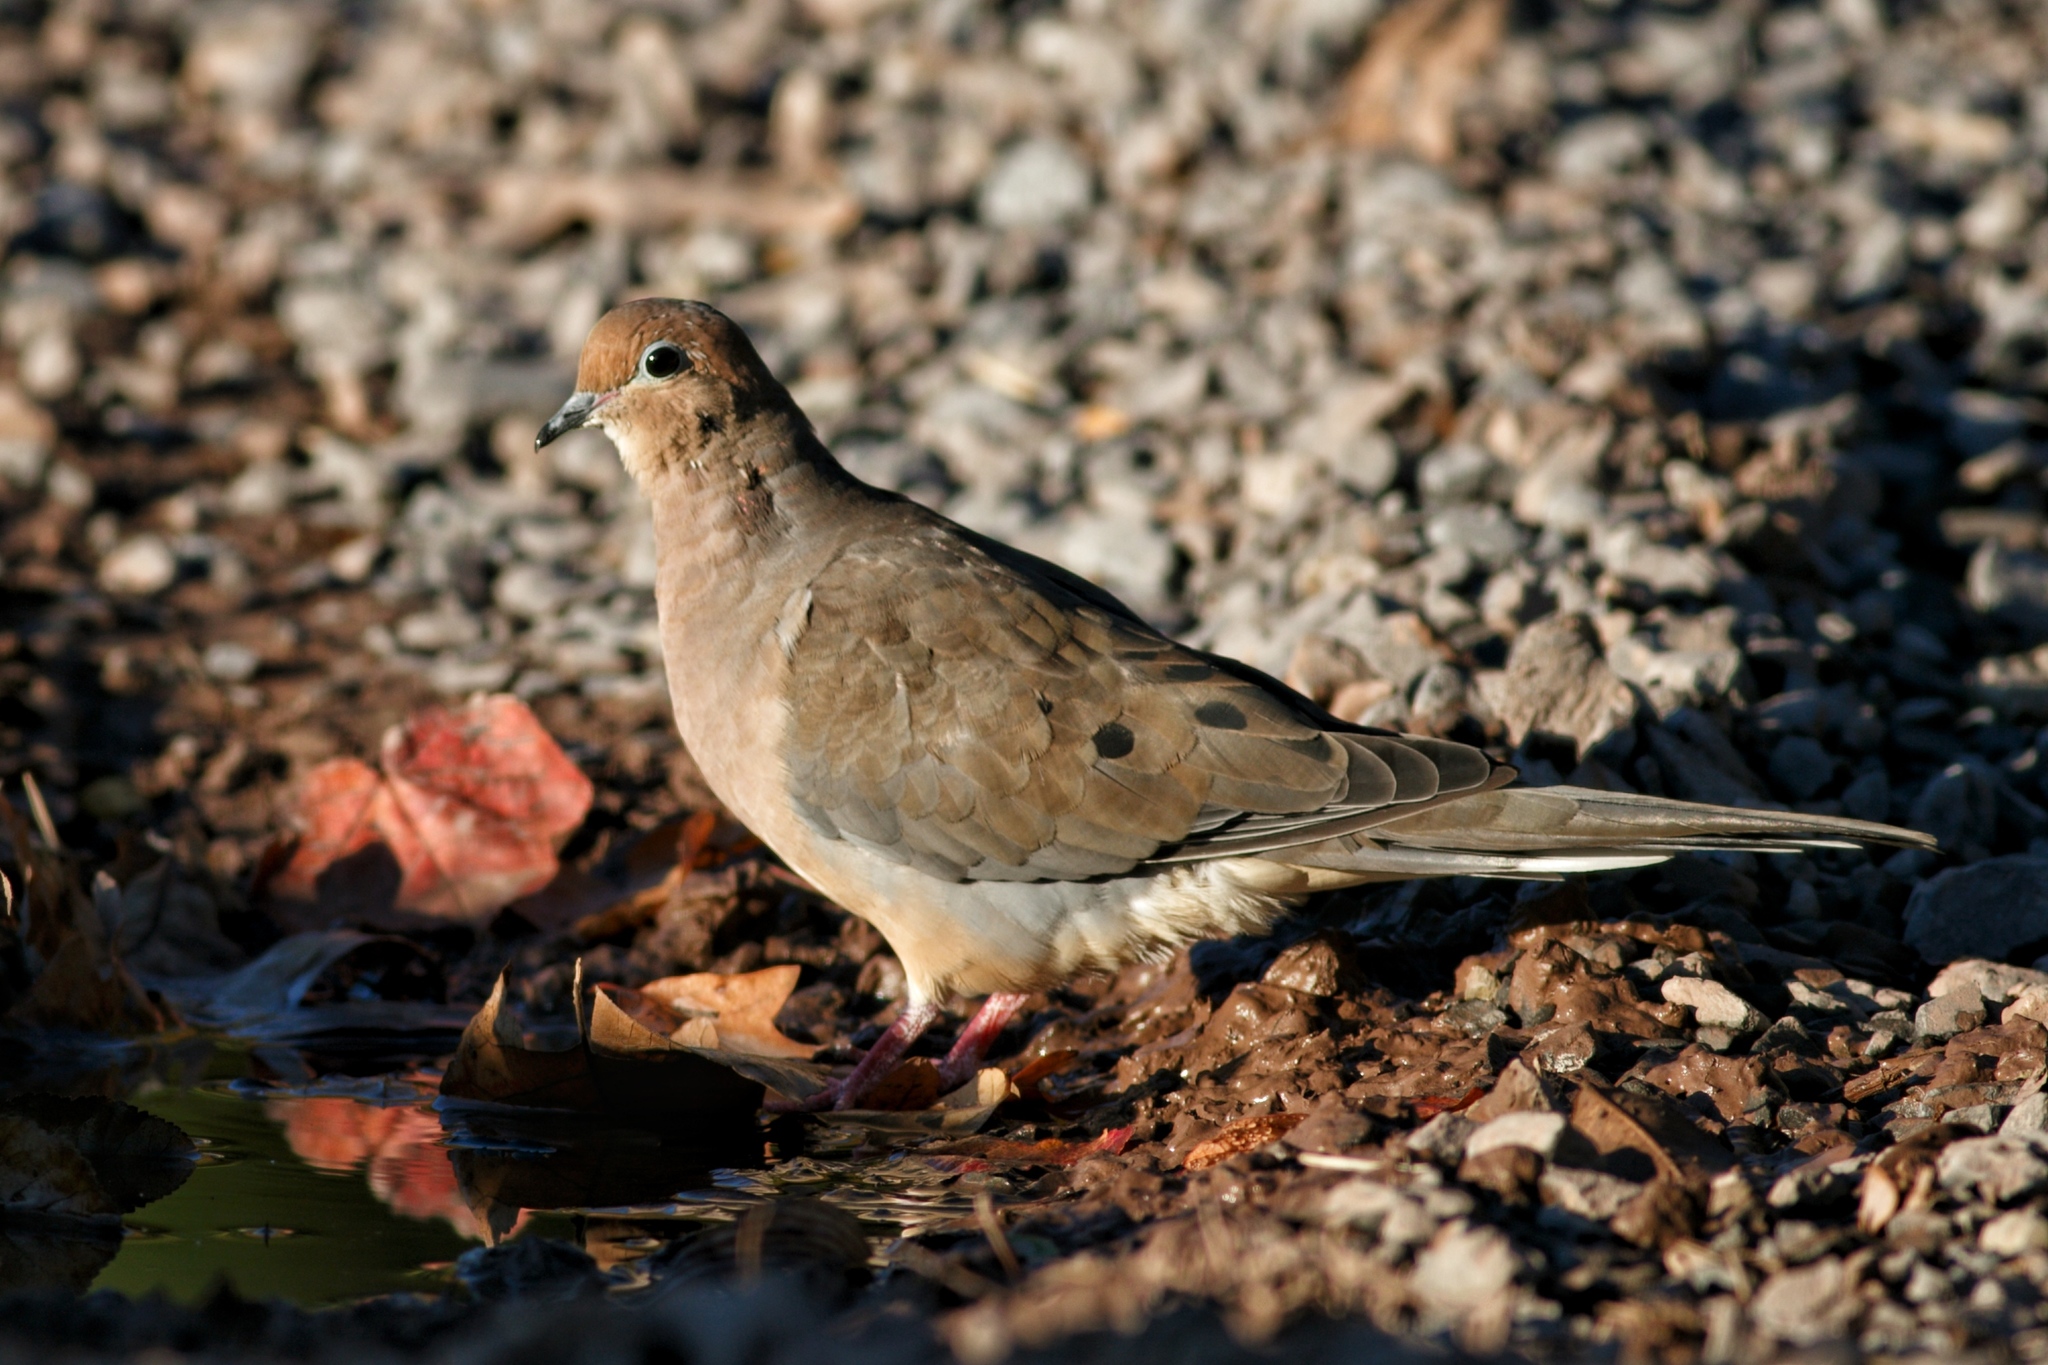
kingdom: Animalia
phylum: Chordata
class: Aves
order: Columbiformes
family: Columbidae
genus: Zenaida
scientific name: Zenaida macroura
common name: Mourning dove
